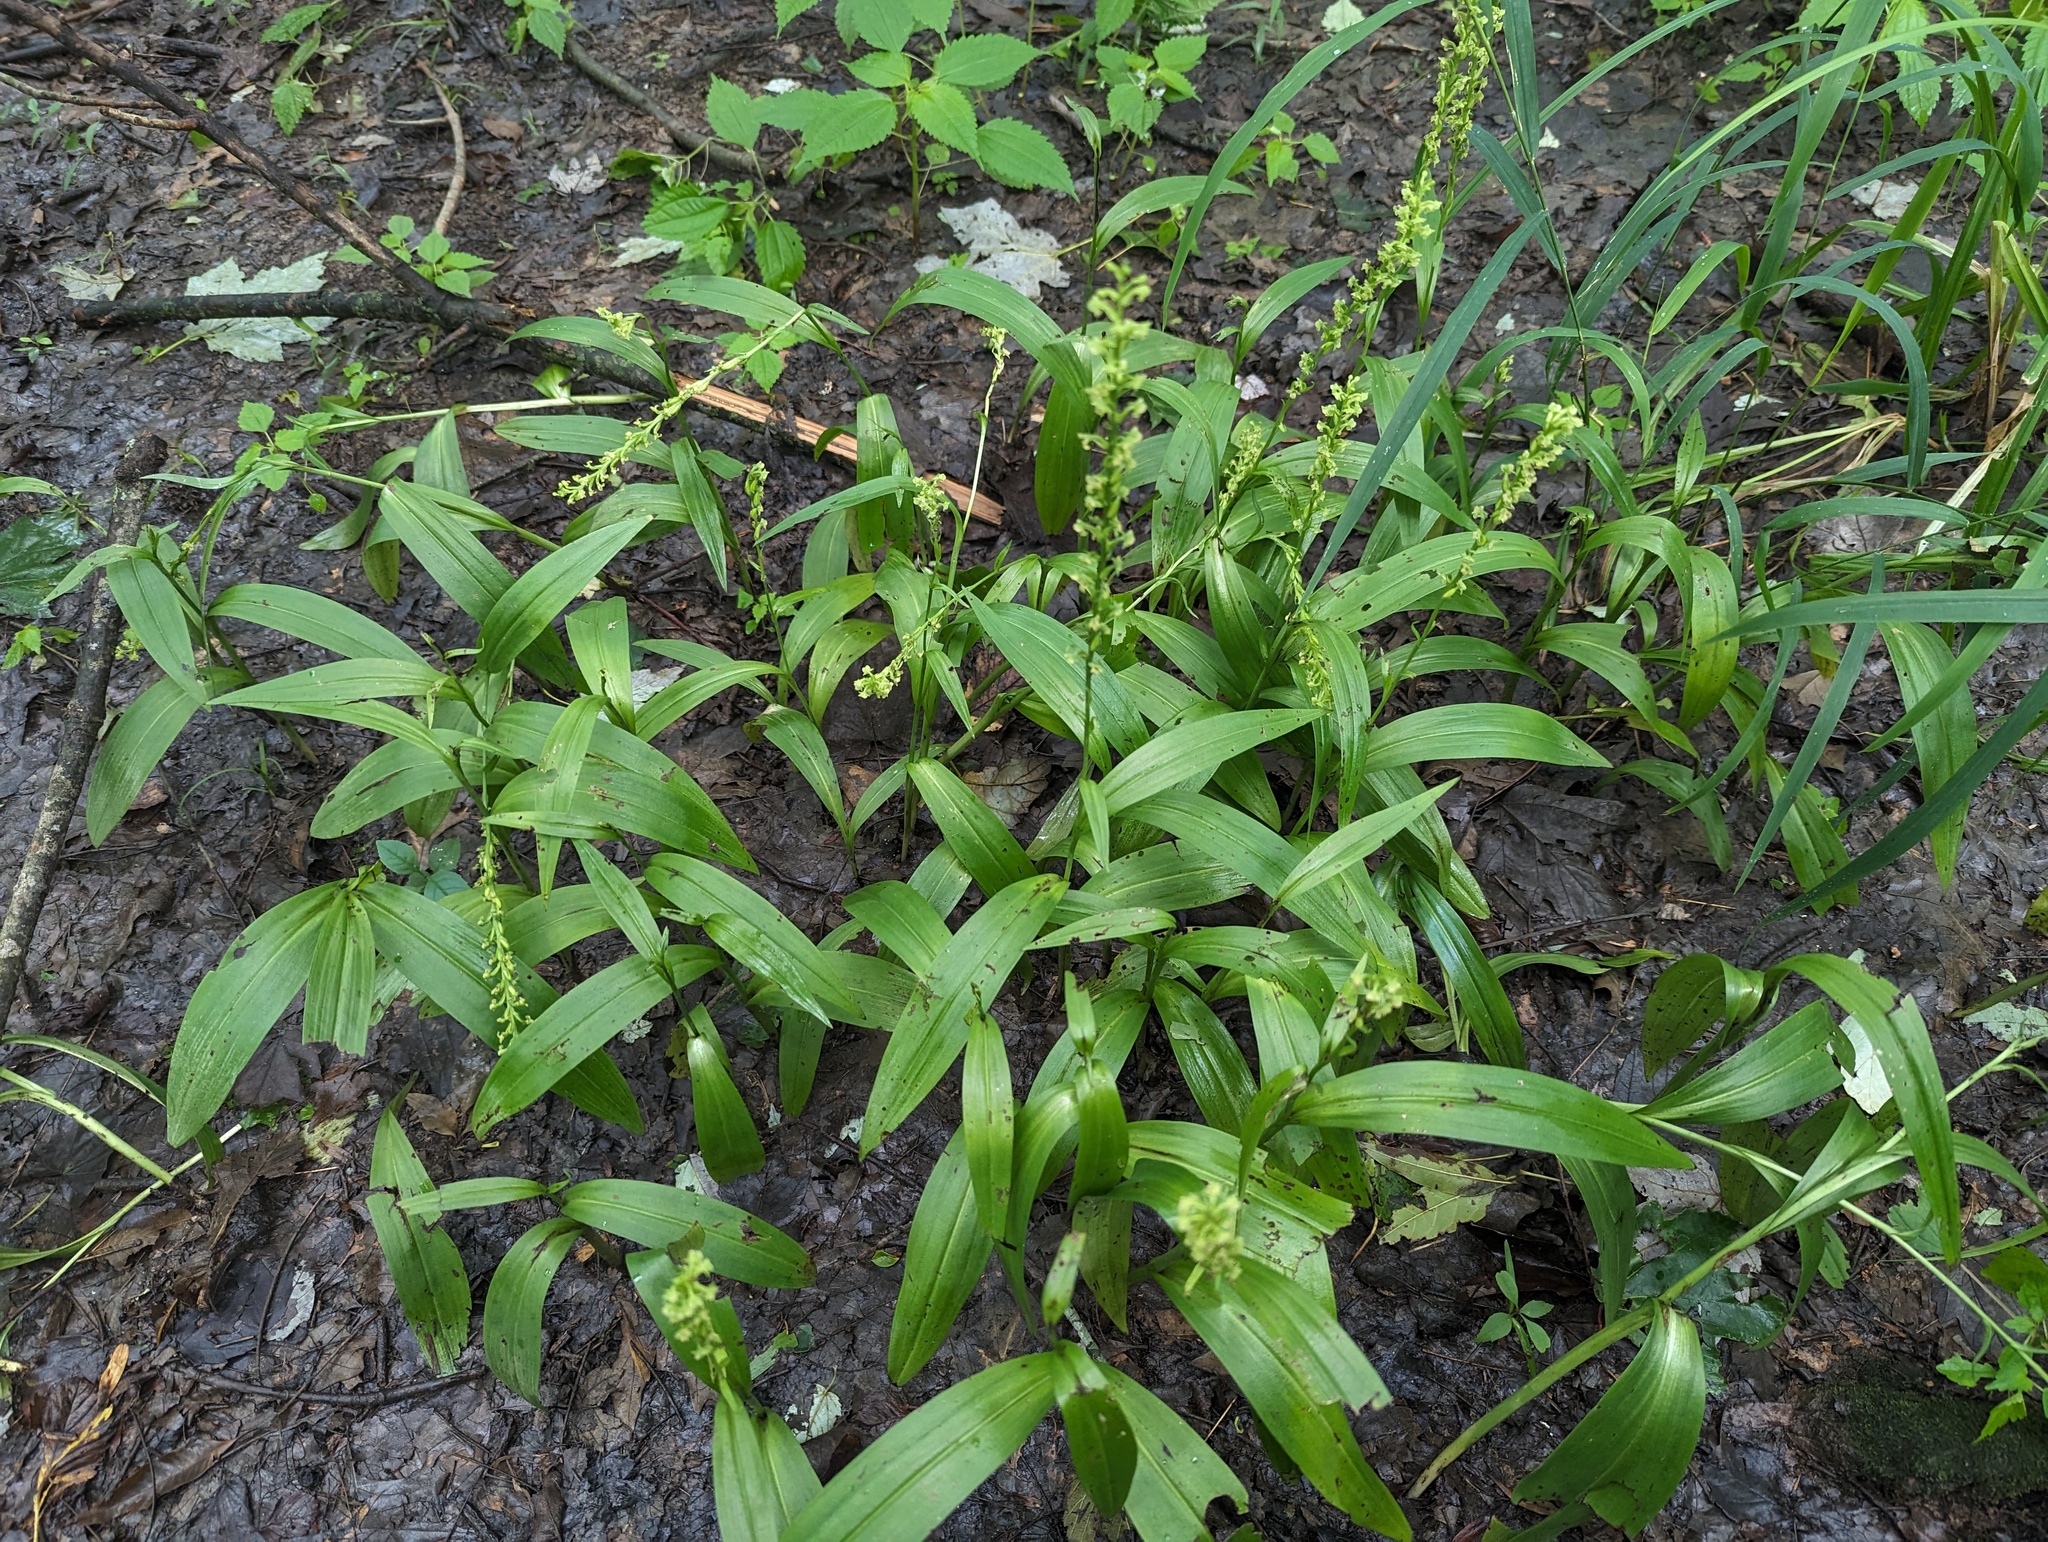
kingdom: Plantae
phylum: Tracheophyta
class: Liliopsida
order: Asparagales
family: Orchidaceae
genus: Platanthera
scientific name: Platanthera flava
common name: Gypsy-spikes
